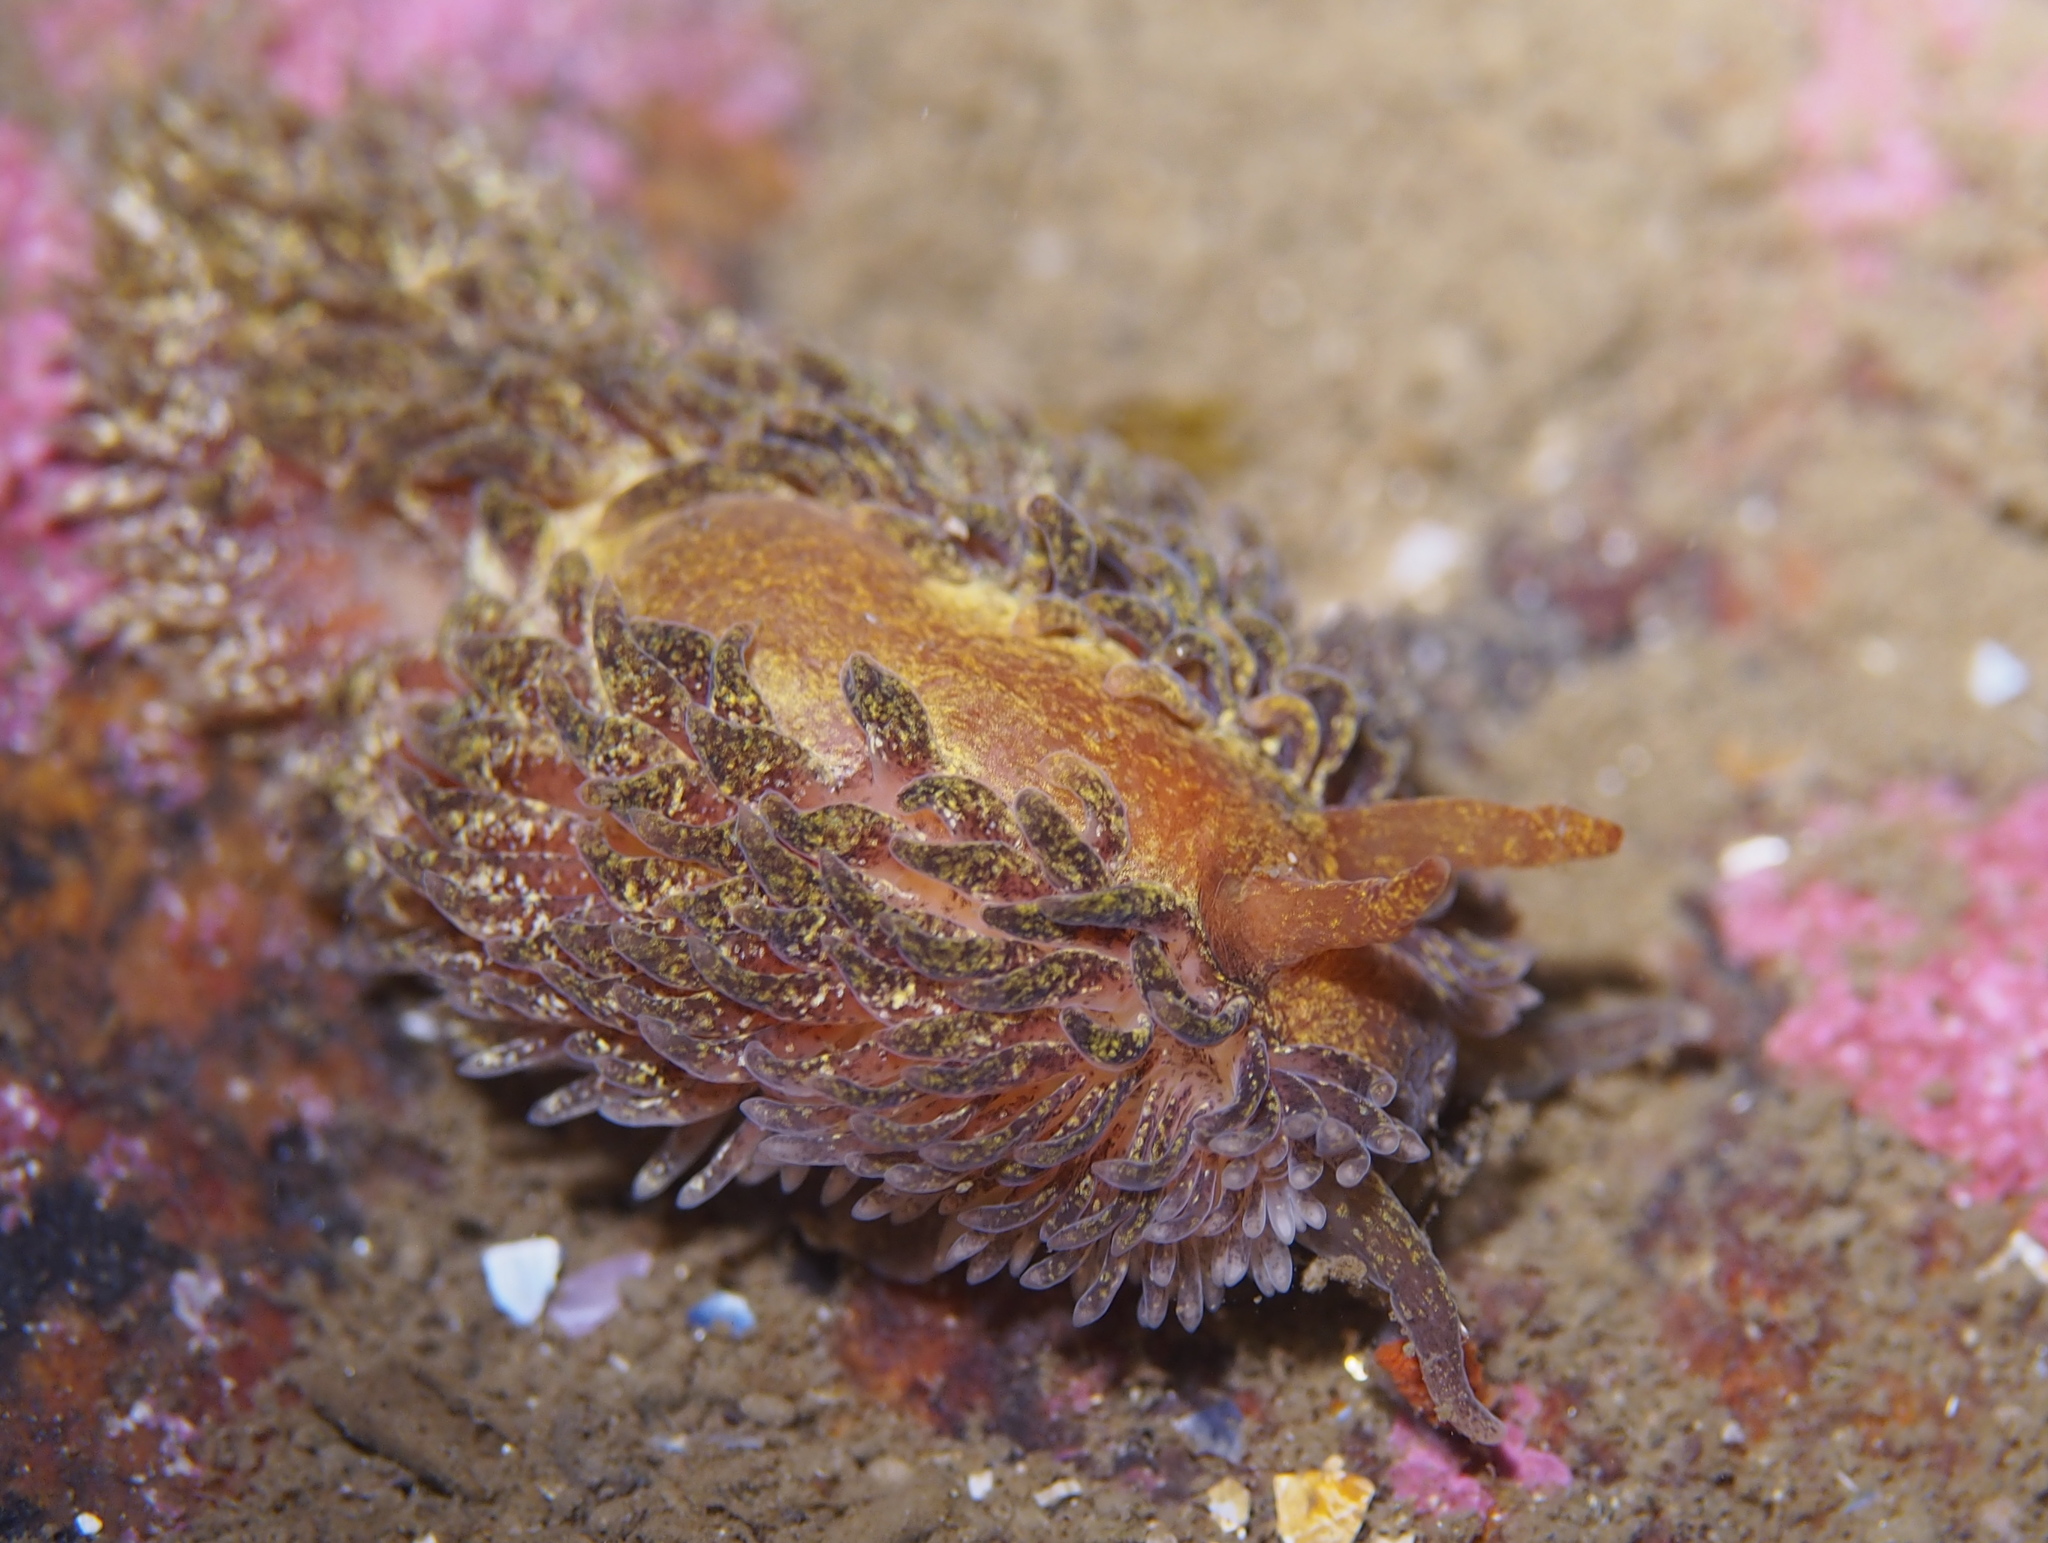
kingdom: Animalia
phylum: Mollusca
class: Gastropoda
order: Nudibranchia
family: Aeolidiidae
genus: Aeolidia
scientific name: Aeolidia papillosa
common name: Common grey sea slug
